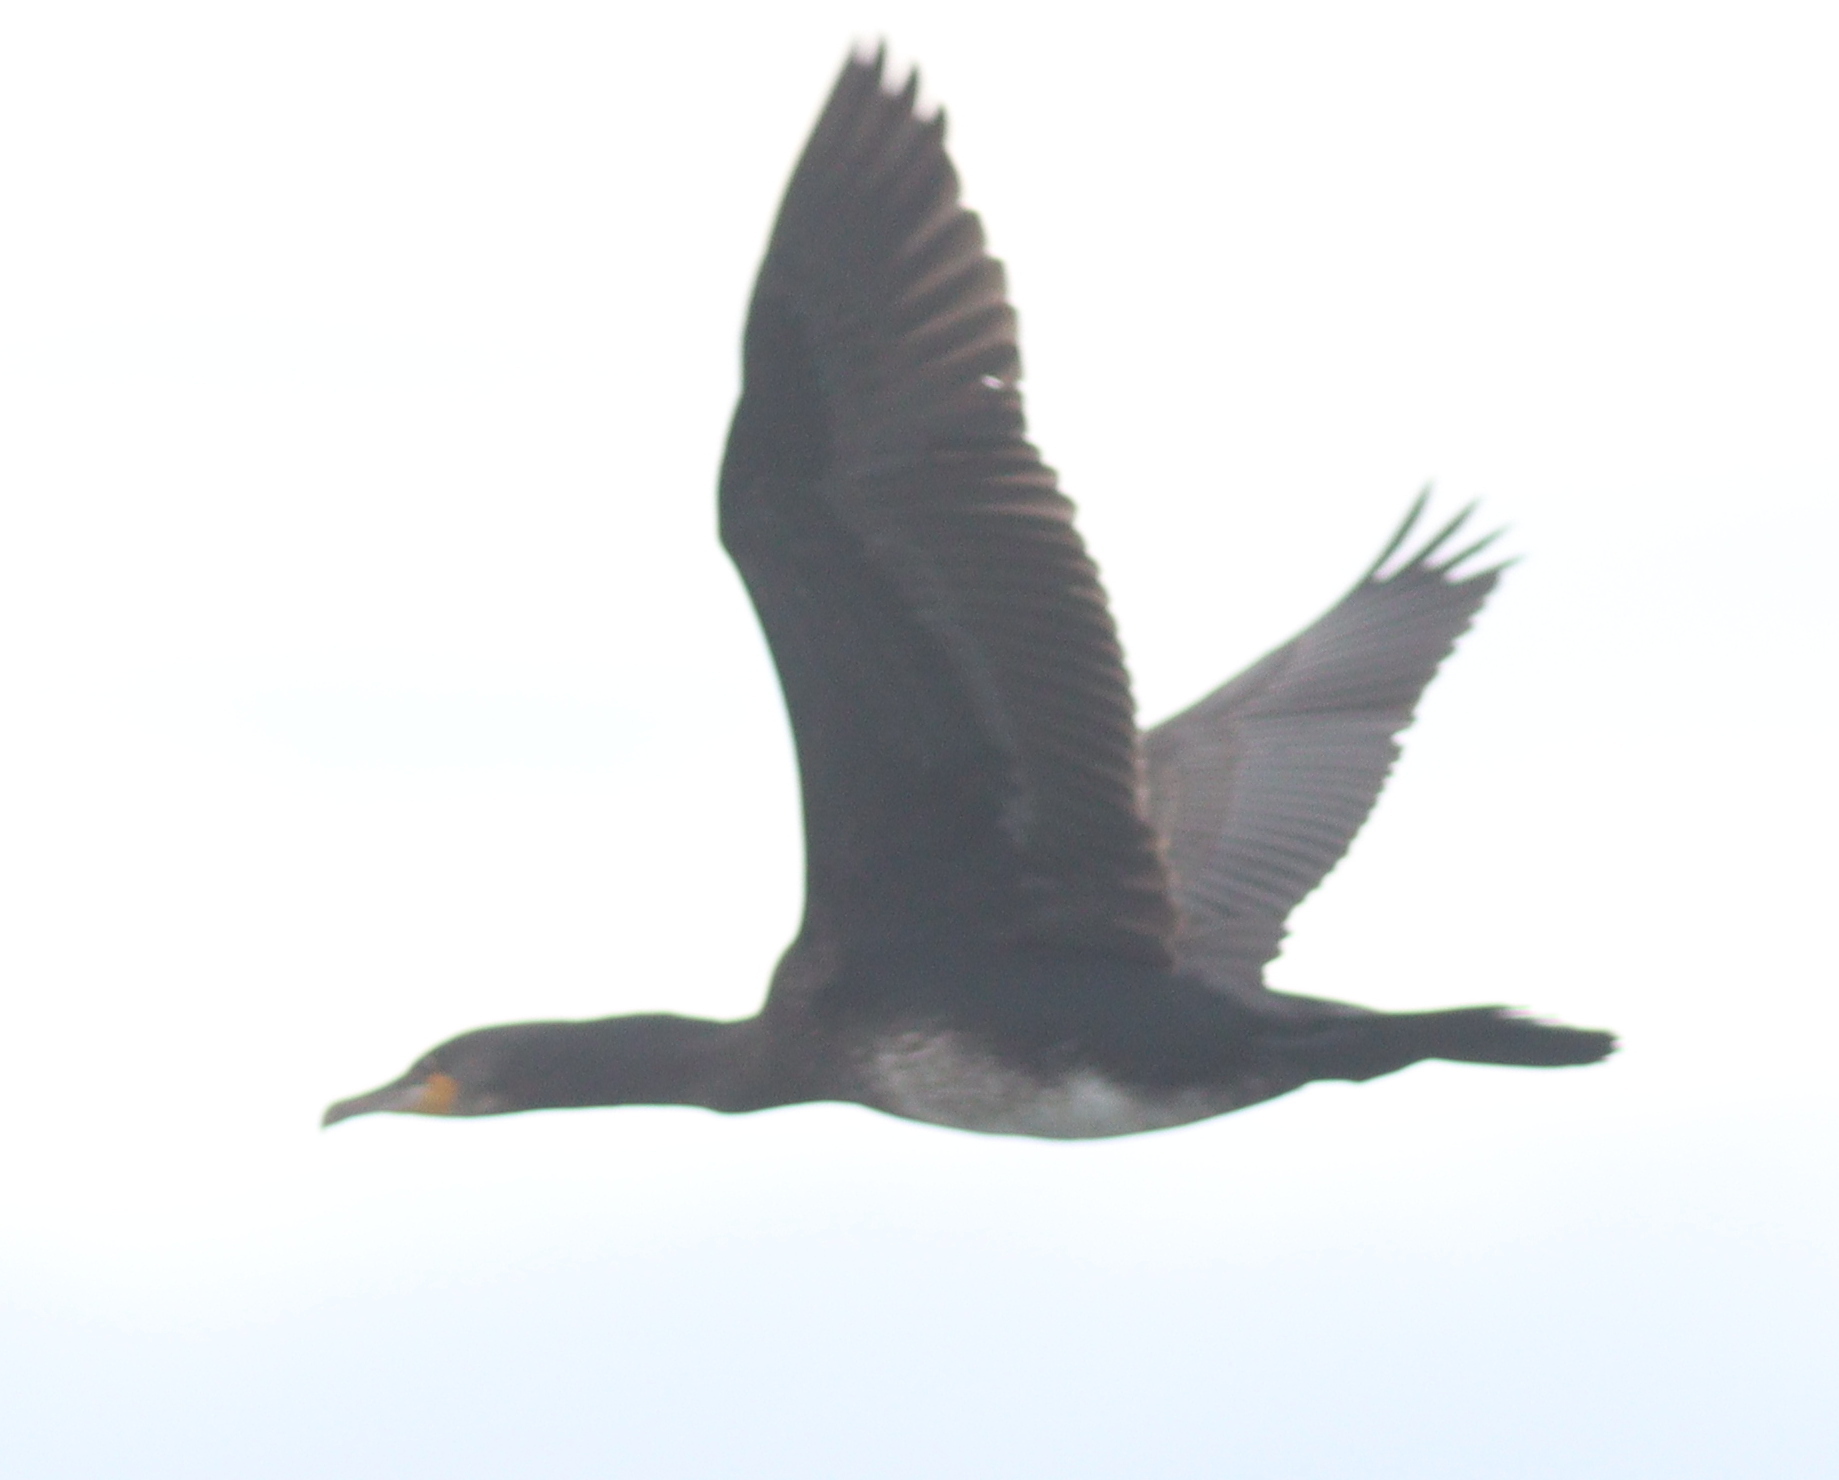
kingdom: Animalia
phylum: Chordata
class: Aves
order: Suliformes
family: Phalacrocoracidae
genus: Phalacrocorax
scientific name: Phalacrocorax carbo
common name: Great cormorant
